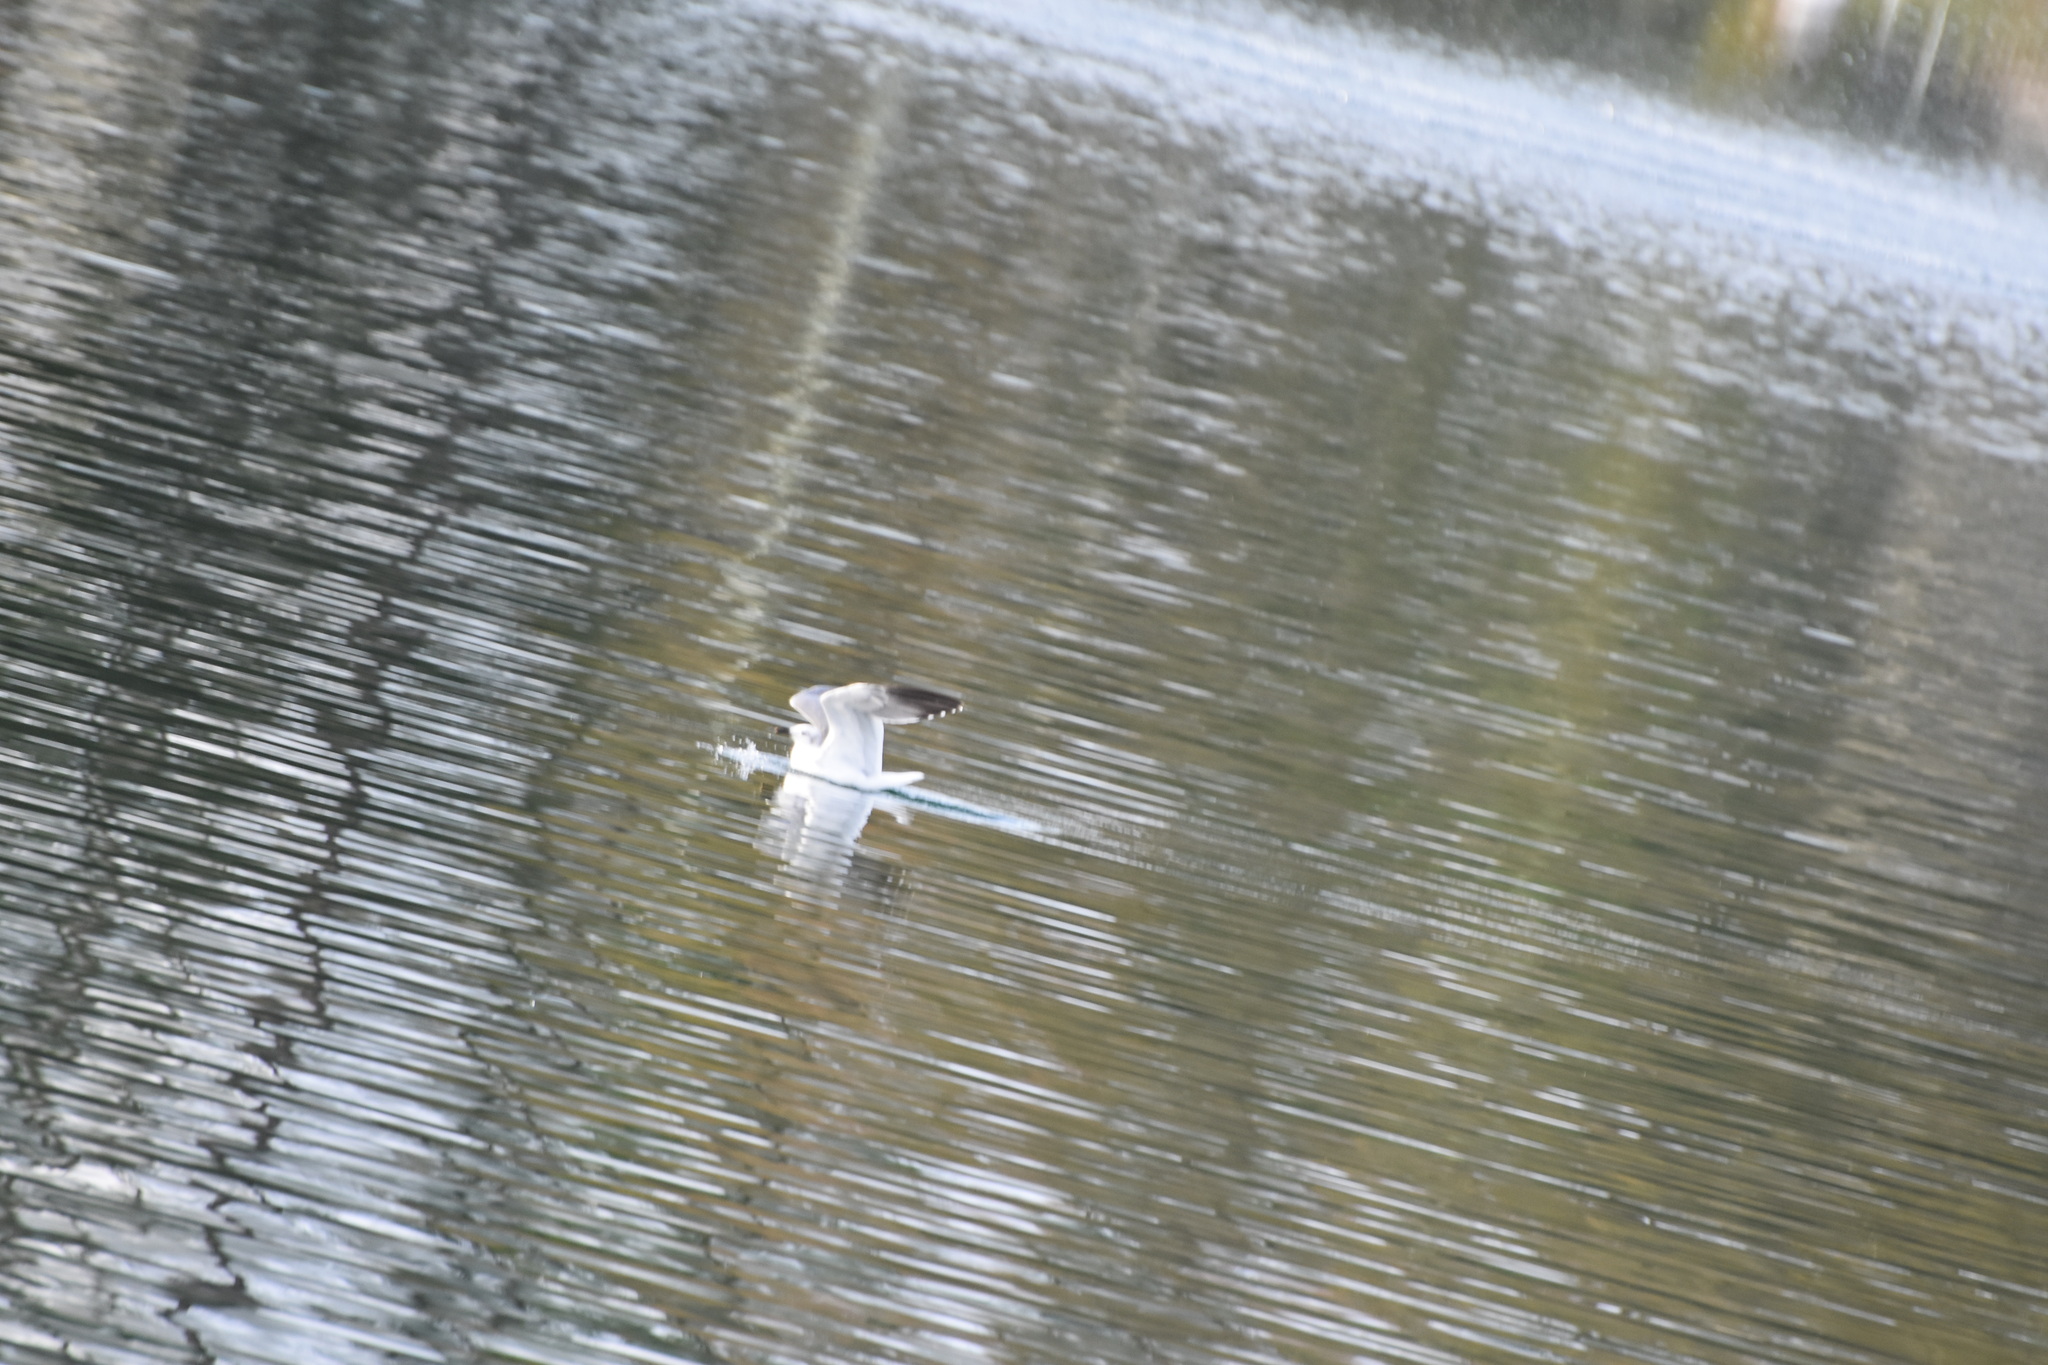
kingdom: Animalia
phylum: Chordata
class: Aves
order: Charadriiformes
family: Laridae
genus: Leucophaeus
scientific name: Leucophaeus atricilla
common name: Laughing gull
